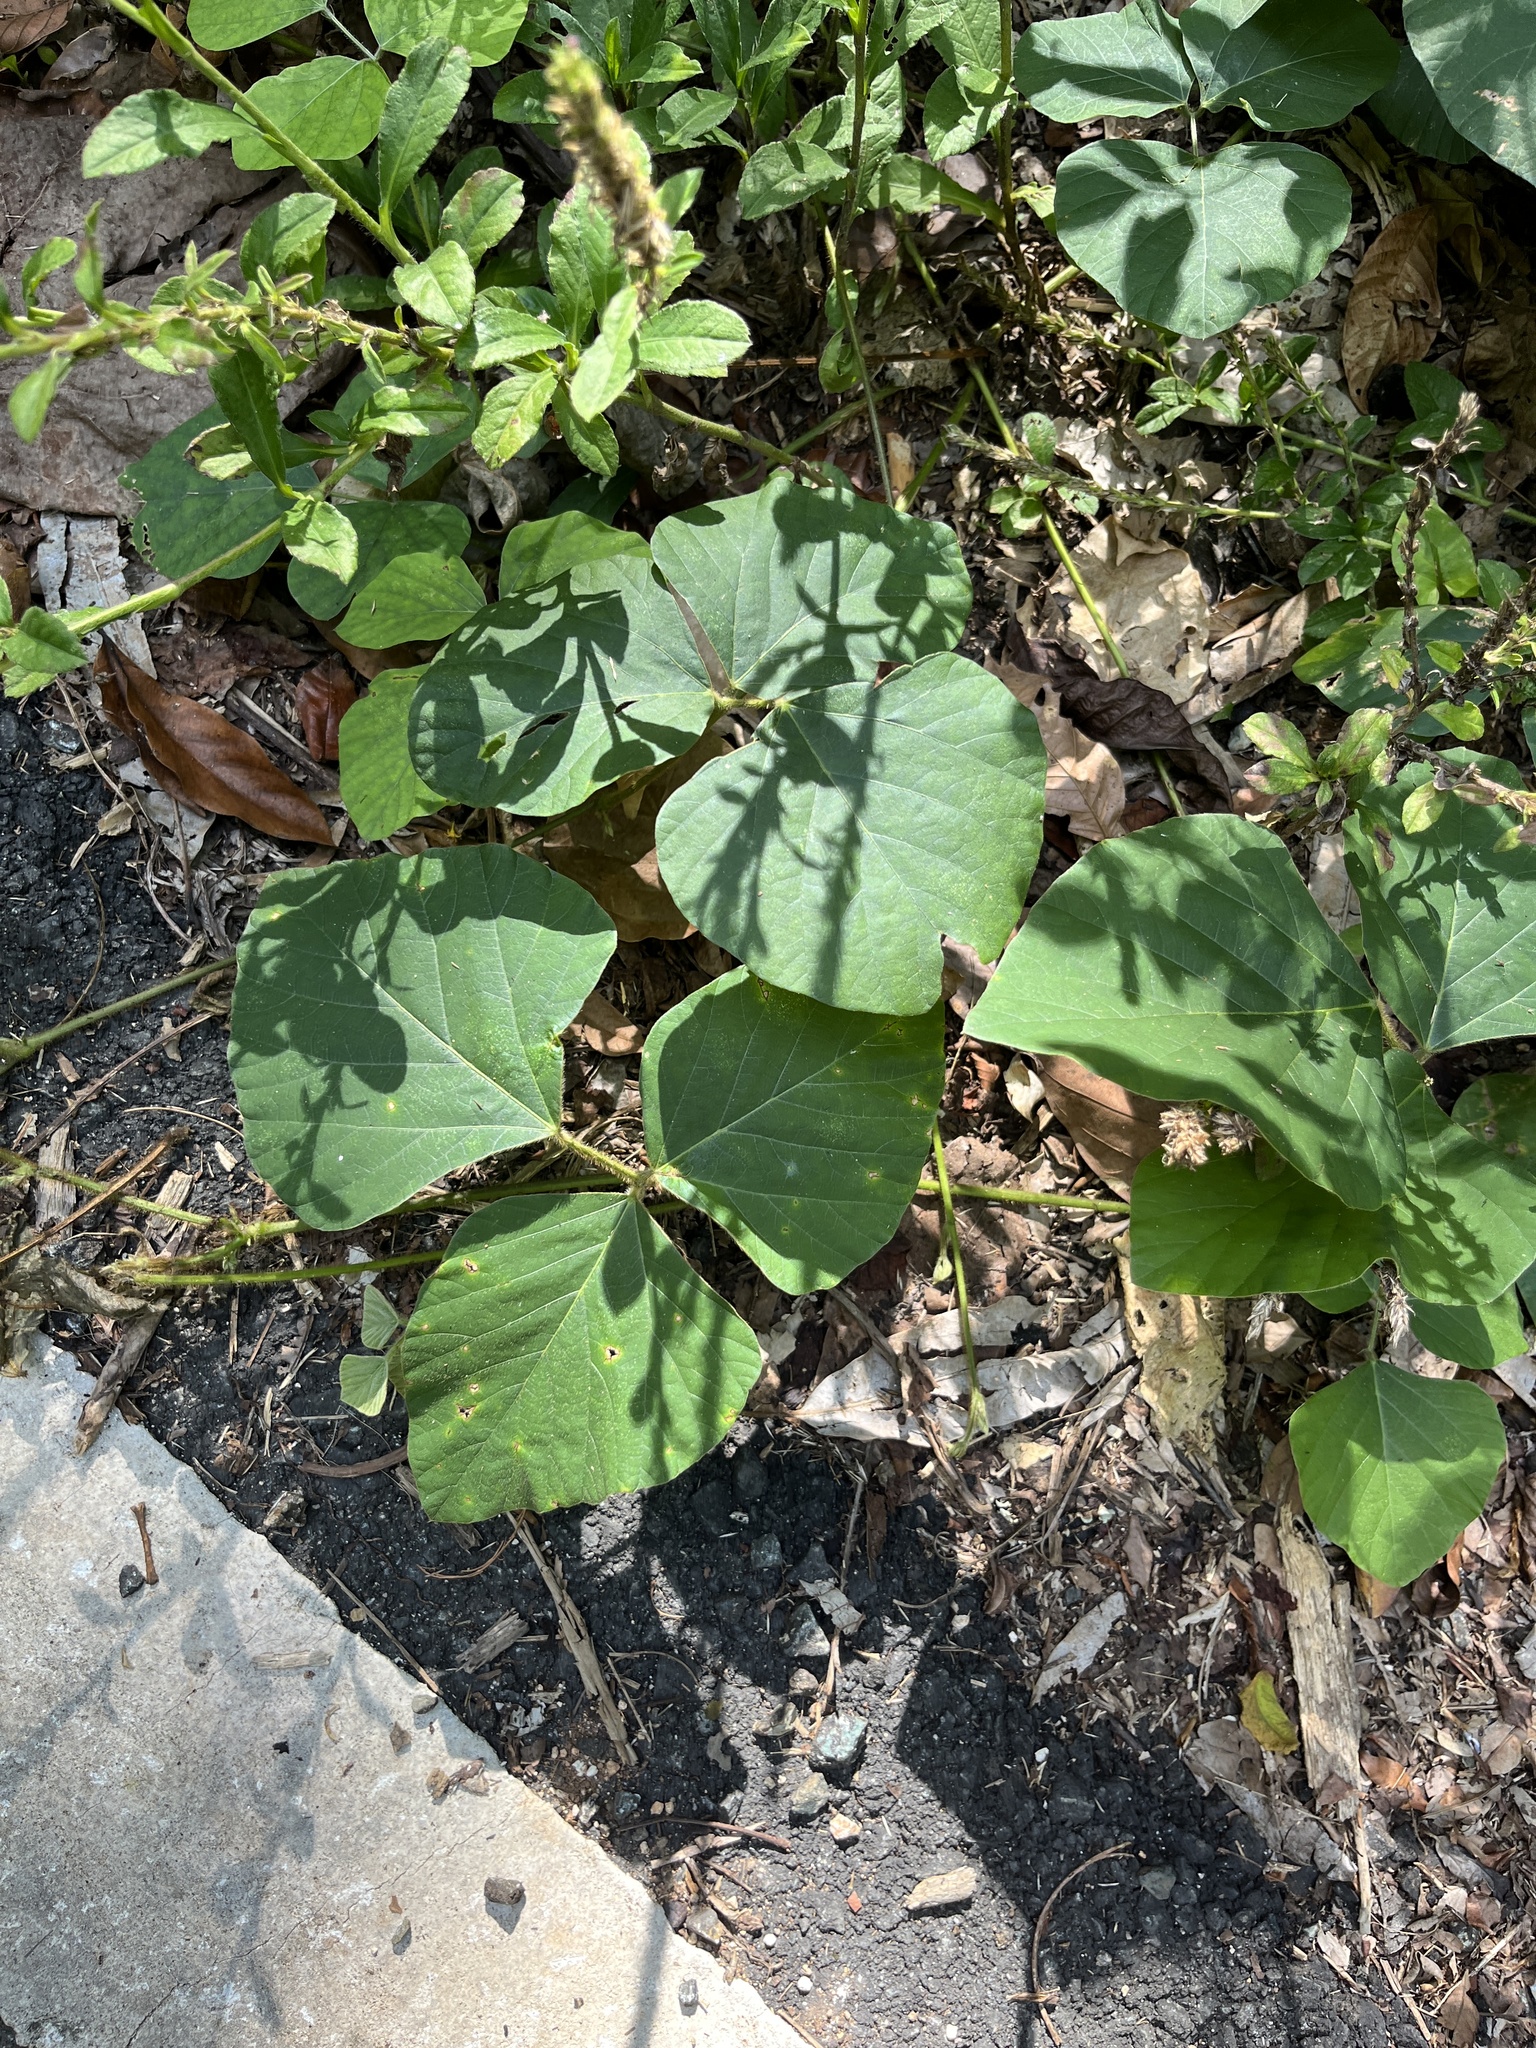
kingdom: Plantae
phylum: Tracheophyta
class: Magnoliopsida
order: Fabales
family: Fabaceae
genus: Neustanthus
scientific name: Neustanthus phaseoloides
